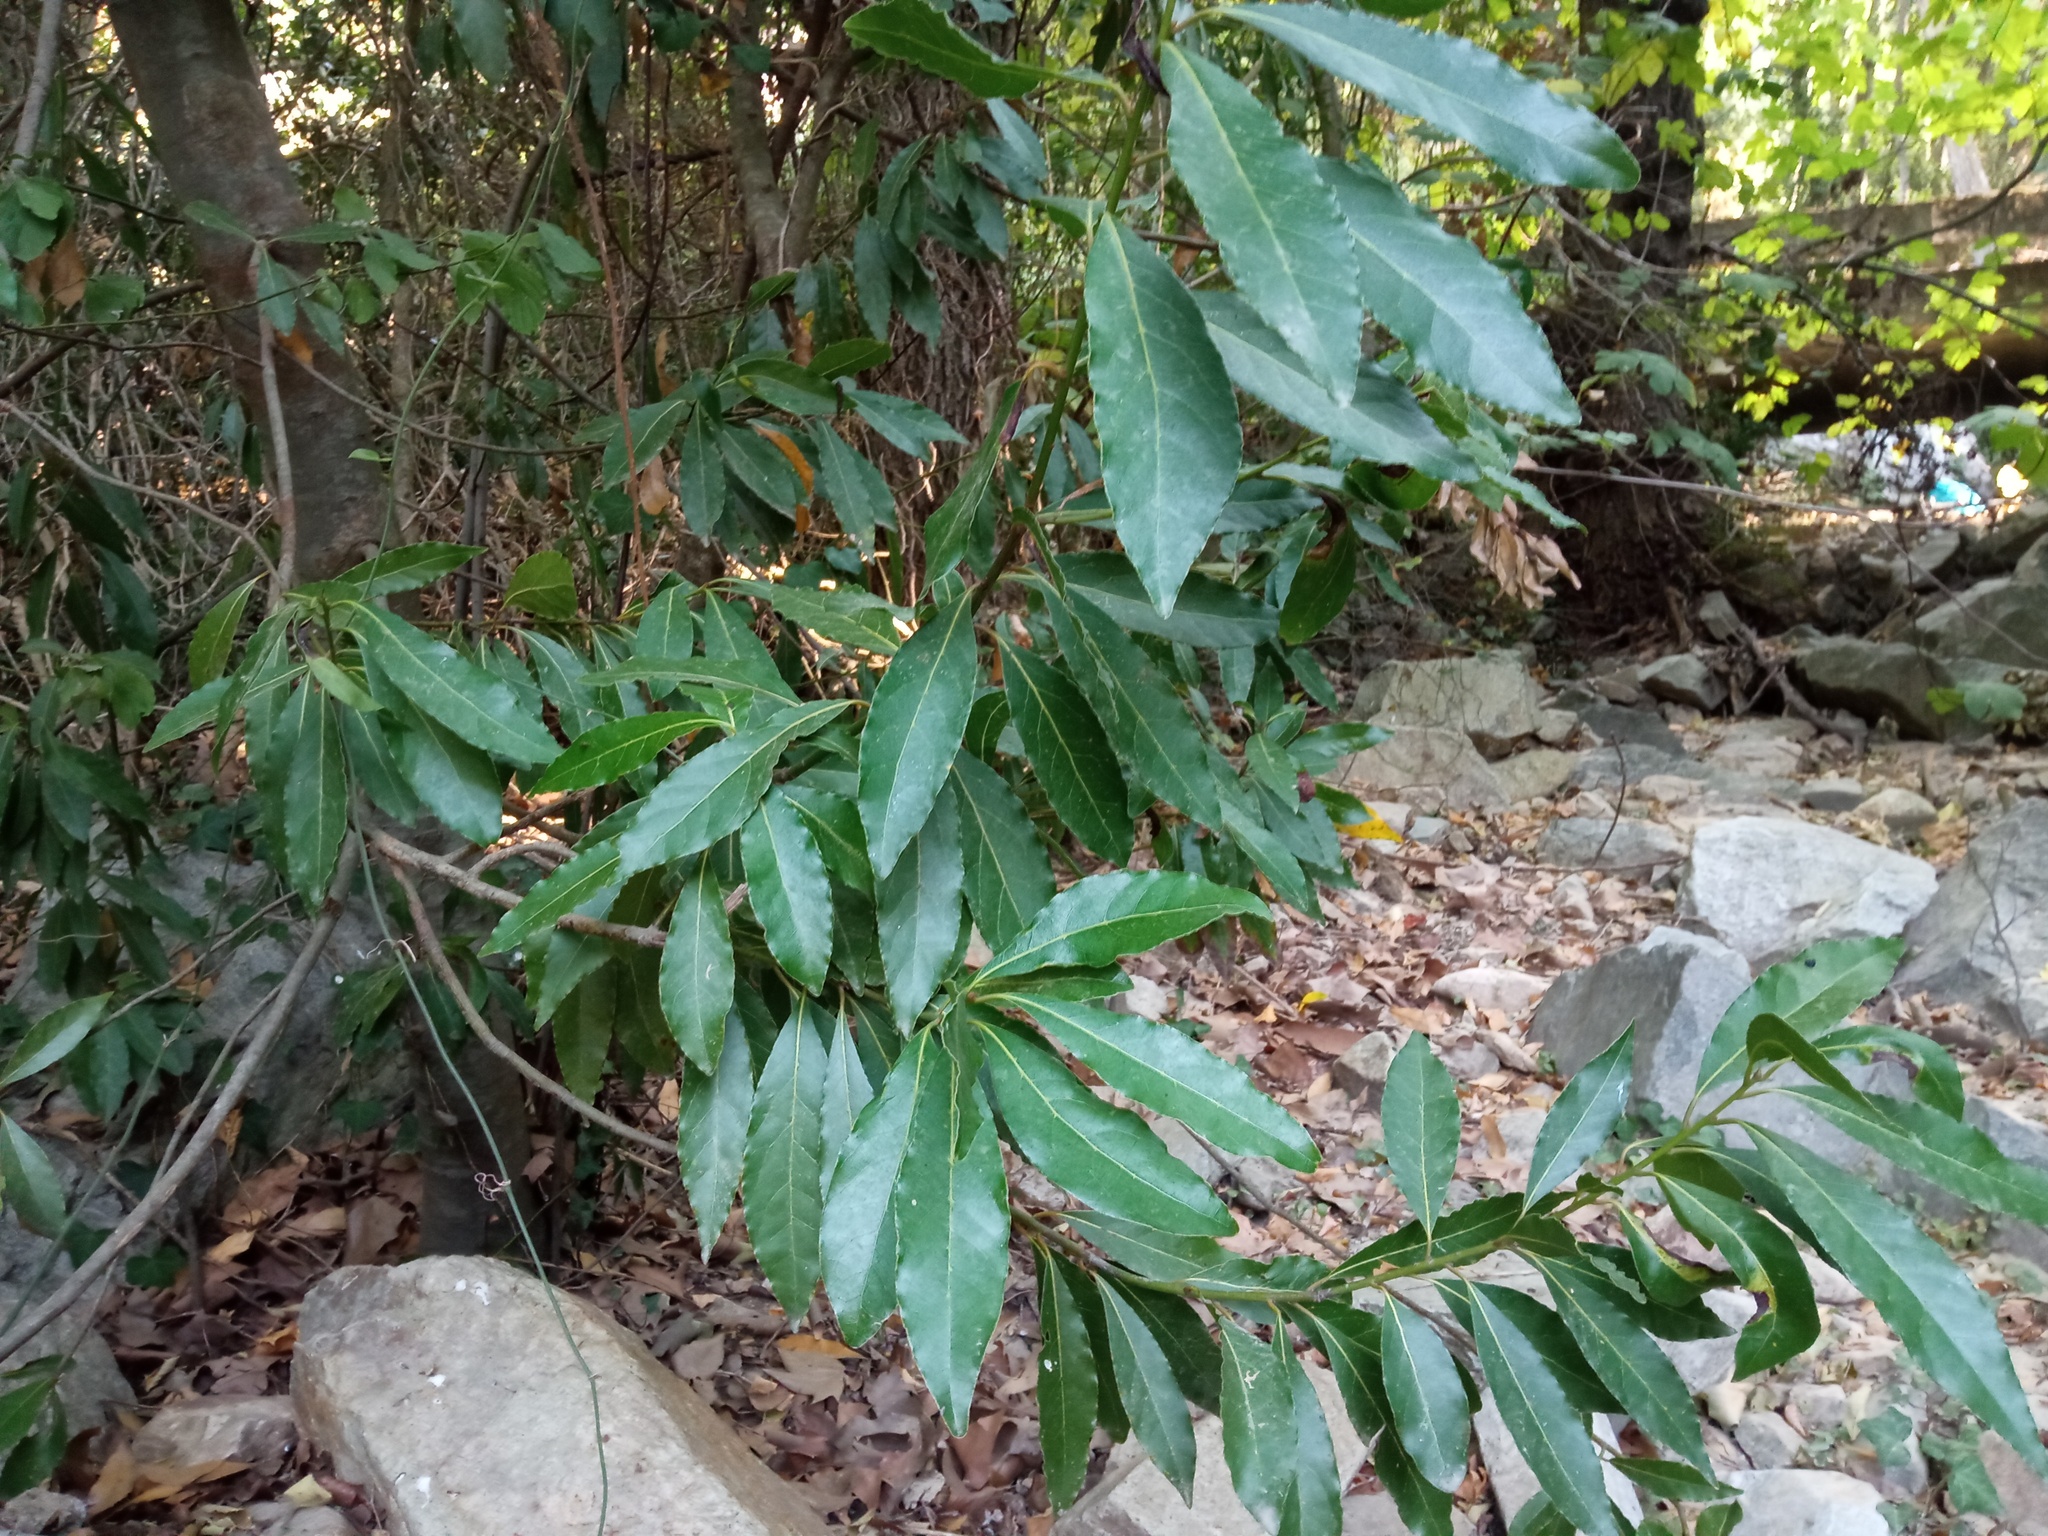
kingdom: Plantae
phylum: Tracheophyta
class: Magnoliopsida
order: Laurales
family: Lauraceae
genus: Laurus
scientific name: Laurus nobilis
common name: Bay
